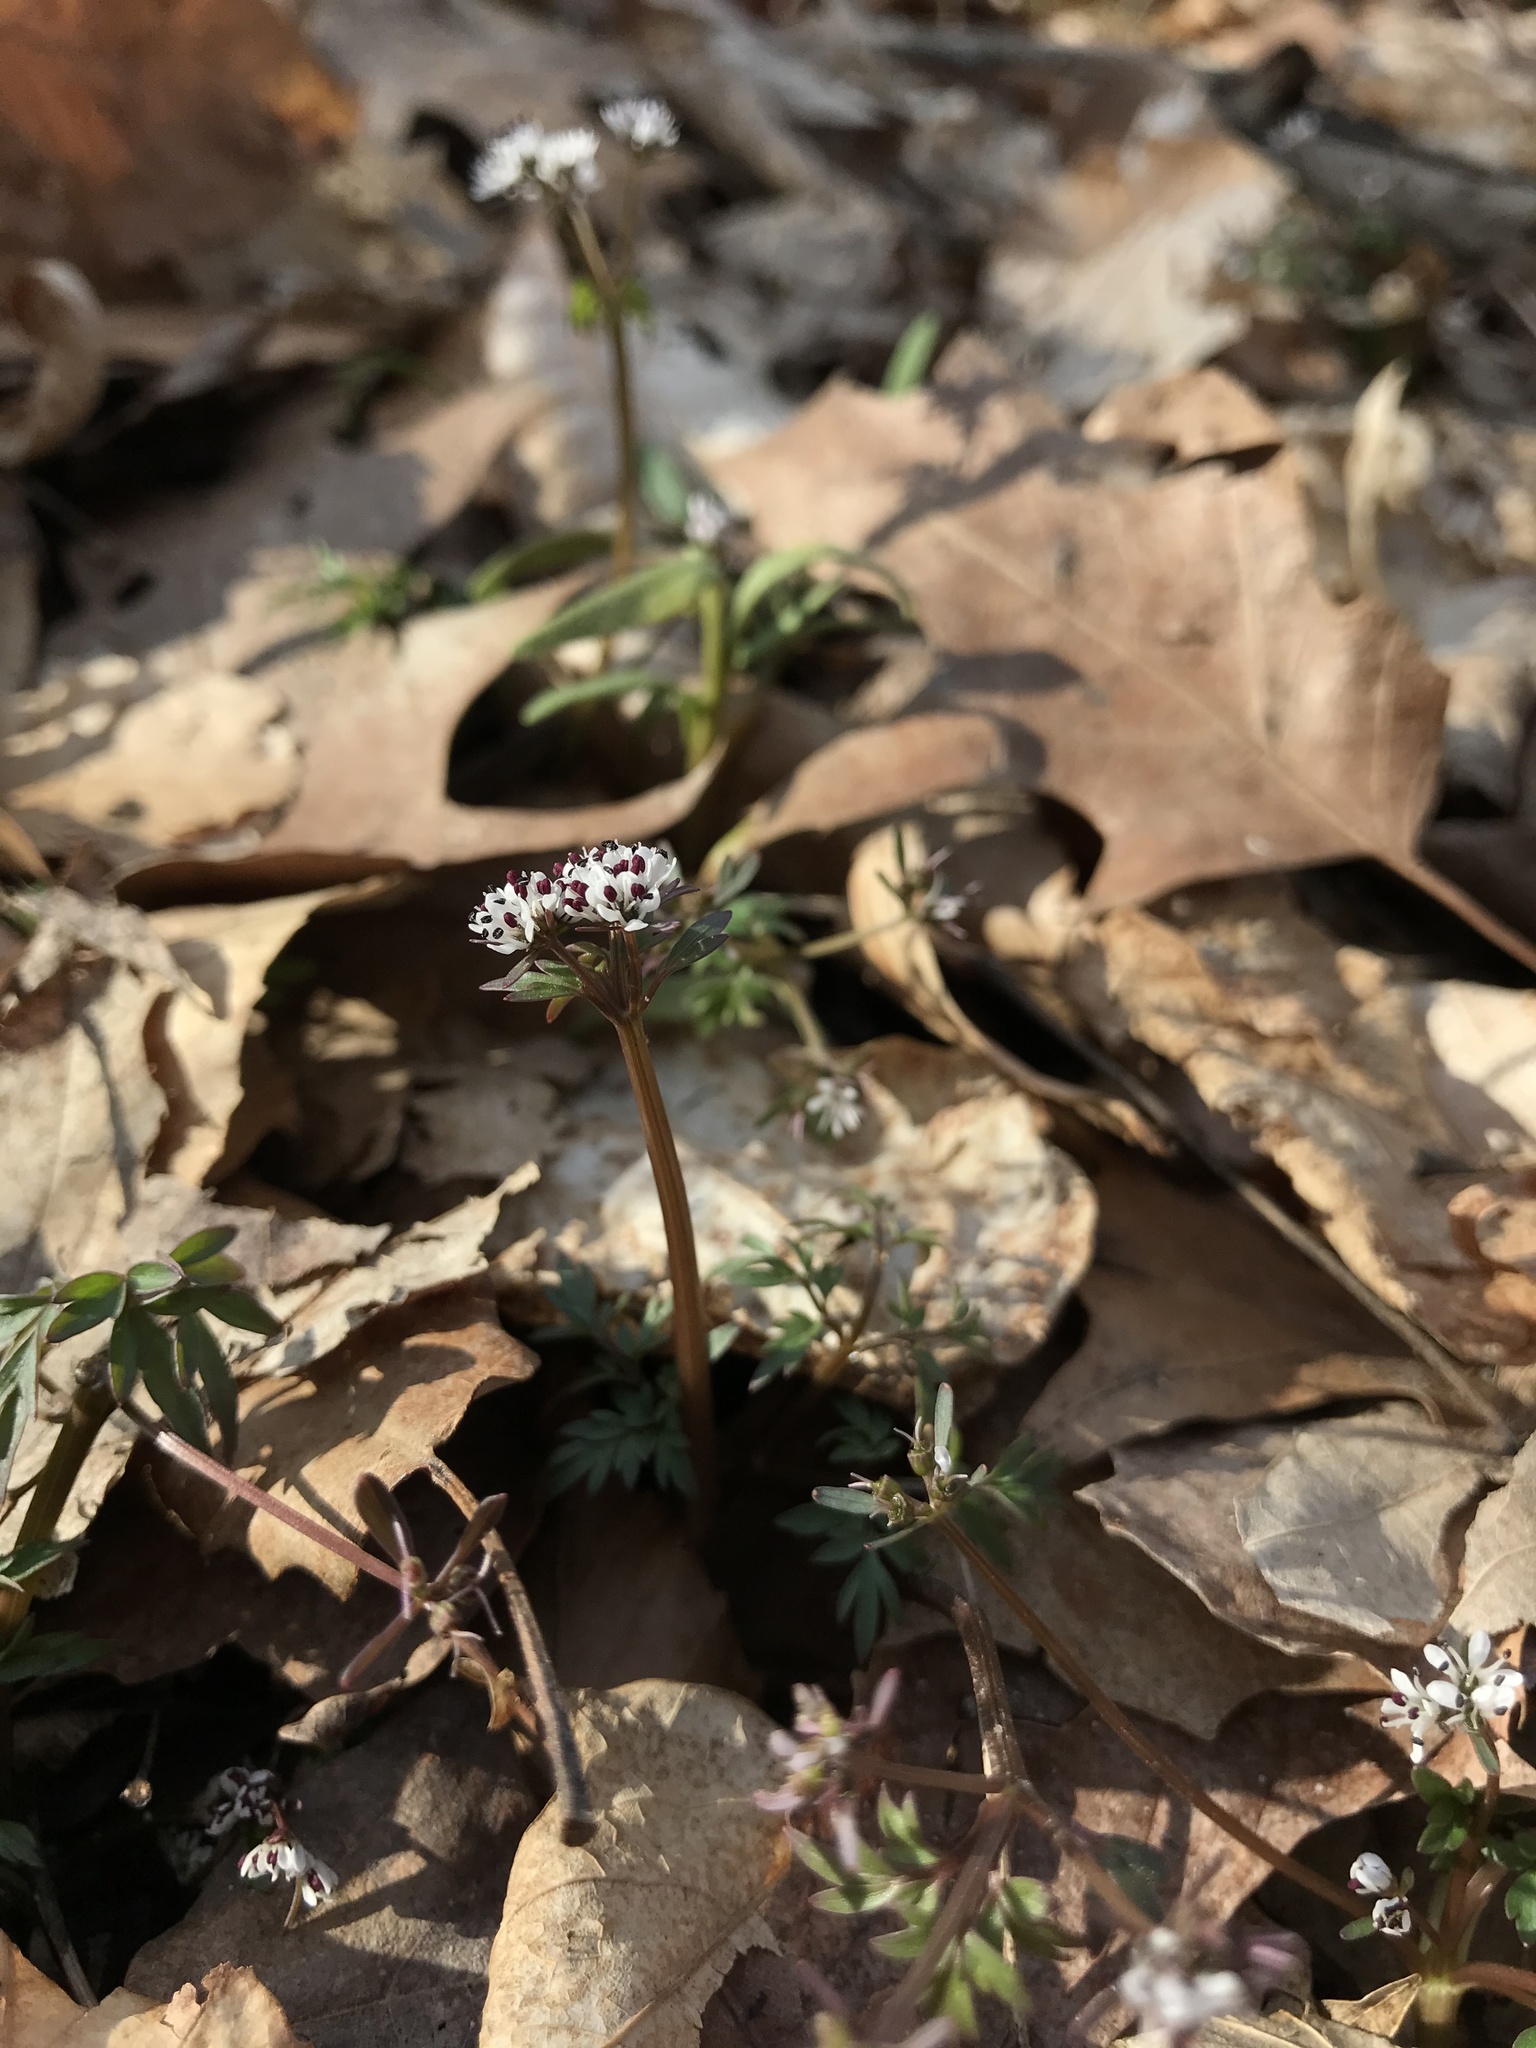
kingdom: Plantae
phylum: Tracheophyta
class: Magnoliopsida
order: Apiales
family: Apiaceae
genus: Erigenia
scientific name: Erigenia bulbosa
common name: Pepper-and-salt
